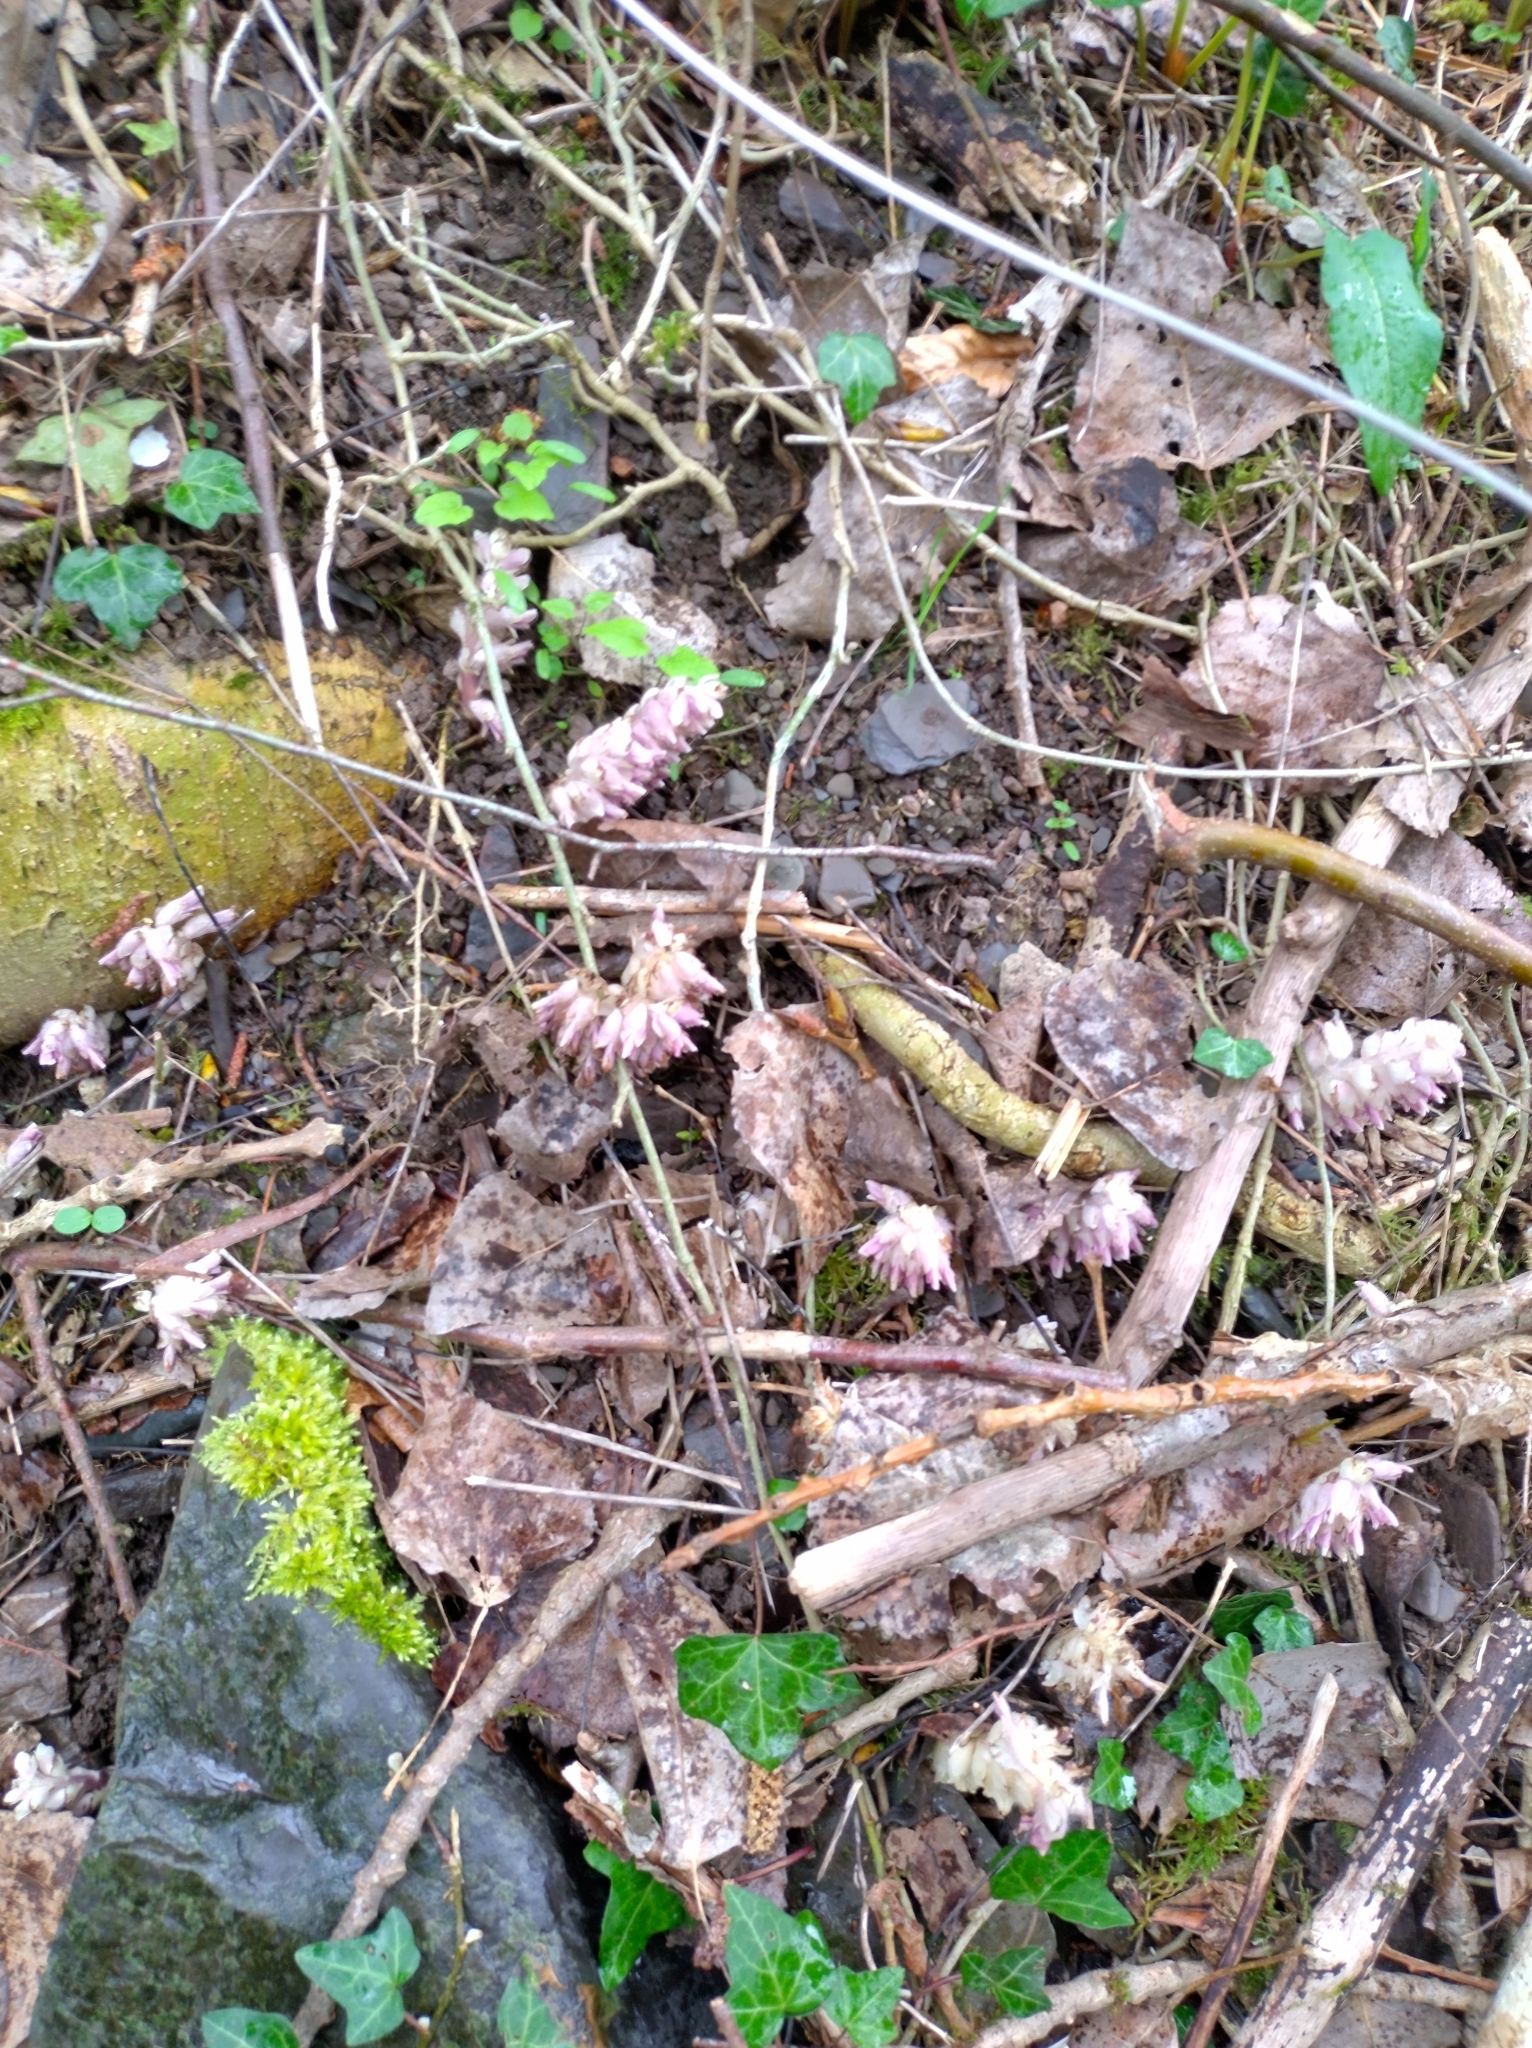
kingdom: Plantae
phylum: Tracheophyta
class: Magnoliopsida
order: Lamiales
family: Orobanchaceae
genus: Lathraea
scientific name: Lathraea squamaria
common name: Toothwort
